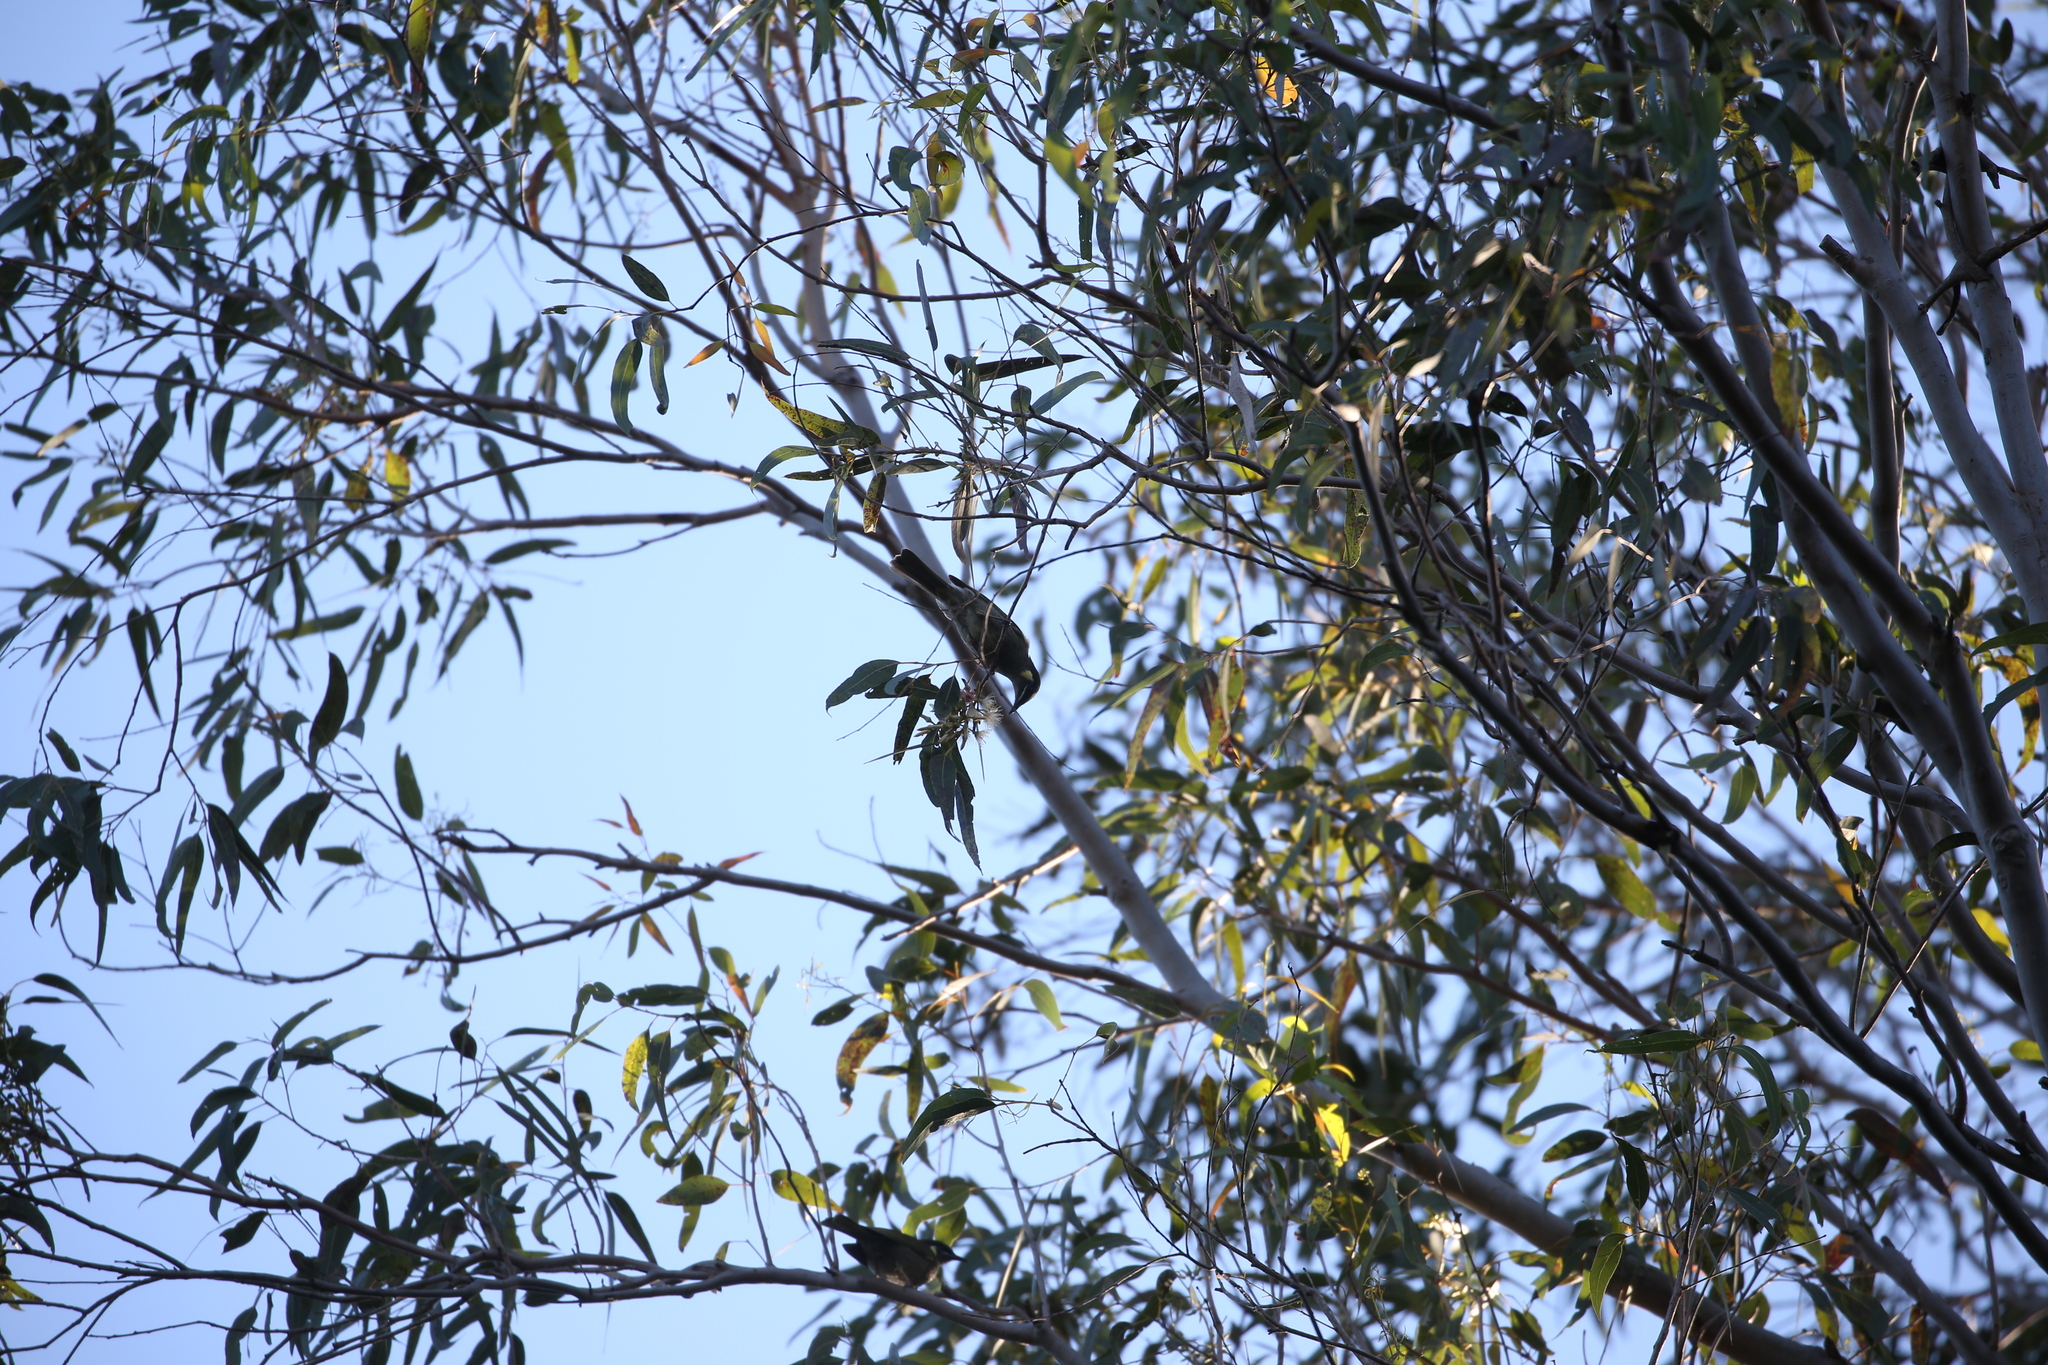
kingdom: Animalia
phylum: Chordata
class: Aves
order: Passeriformes
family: Meliphagidae
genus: Meliphaga
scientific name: Meliphaga lewinii
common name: Lewin's honeyeater
